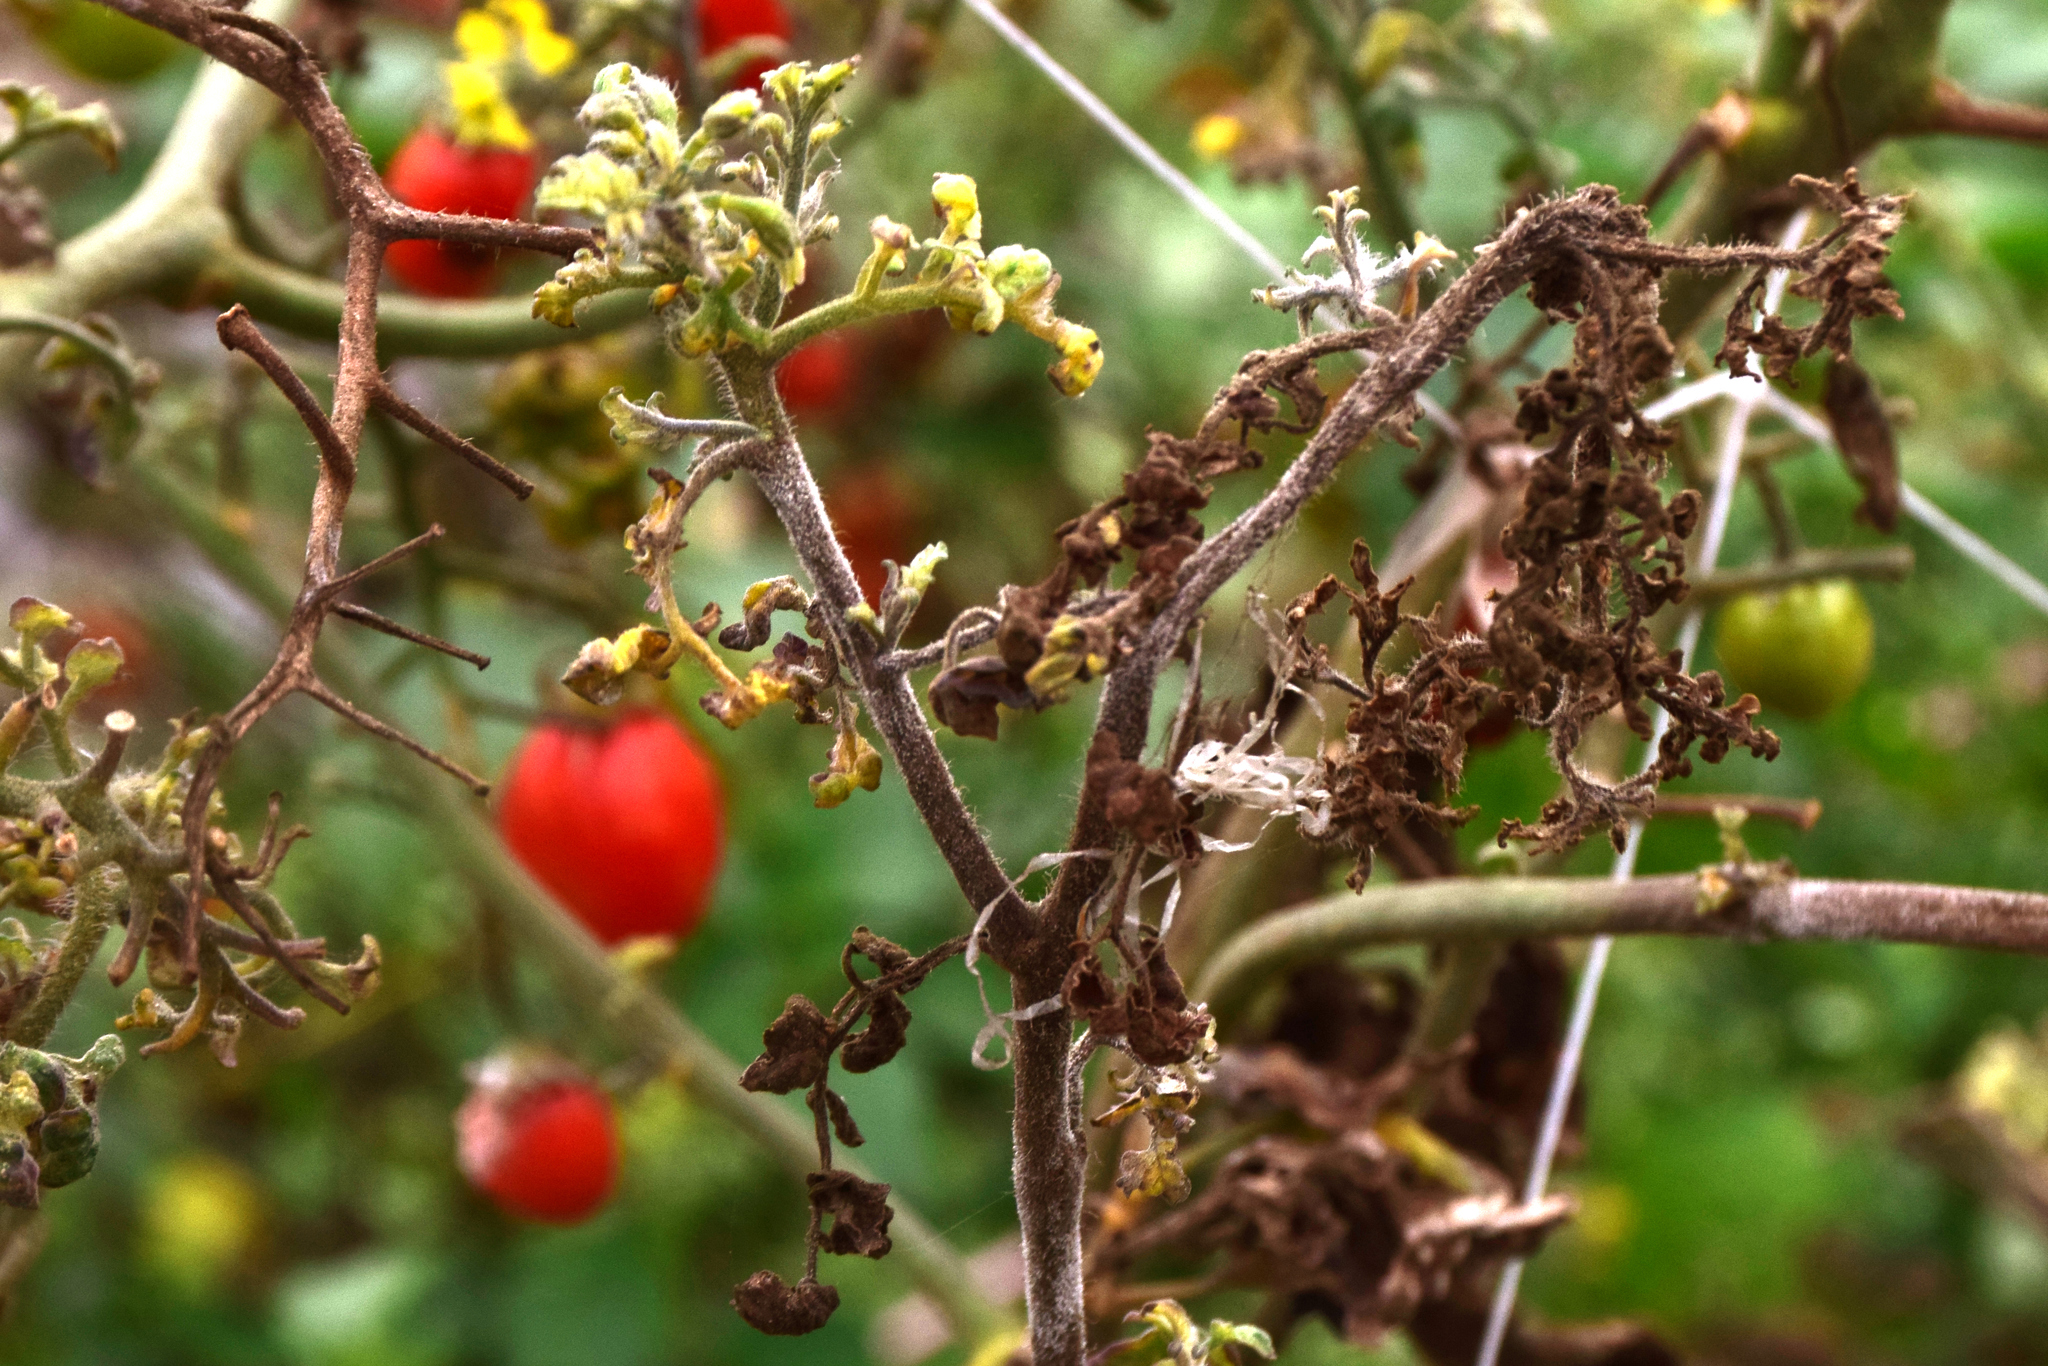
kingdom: Chromista
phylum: Oomycota
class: Peronosporea
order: Peronosporales
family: Peronosporaceae
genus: Phytophthora
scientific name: Phytophthora infestans
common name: Potato blight
